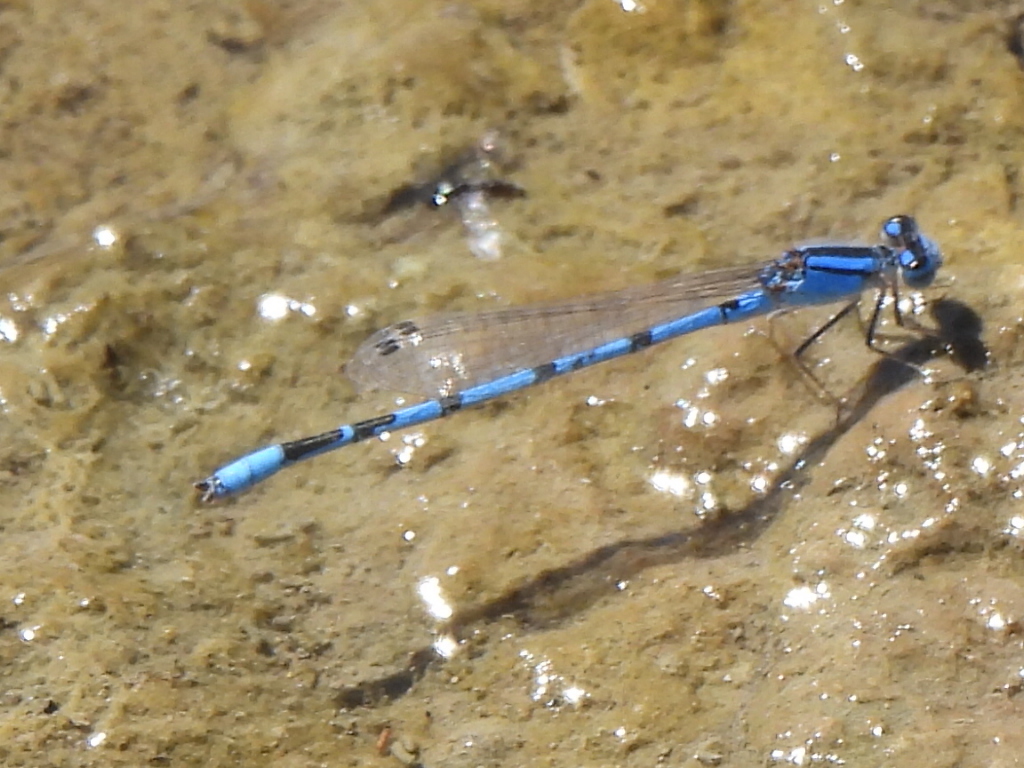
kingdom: Animalia
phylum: Arthropoda
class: Insecta
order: Odonata
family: Coenagrionidae
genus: Enallagma
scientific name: Enallagma civile
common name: Damselfly
